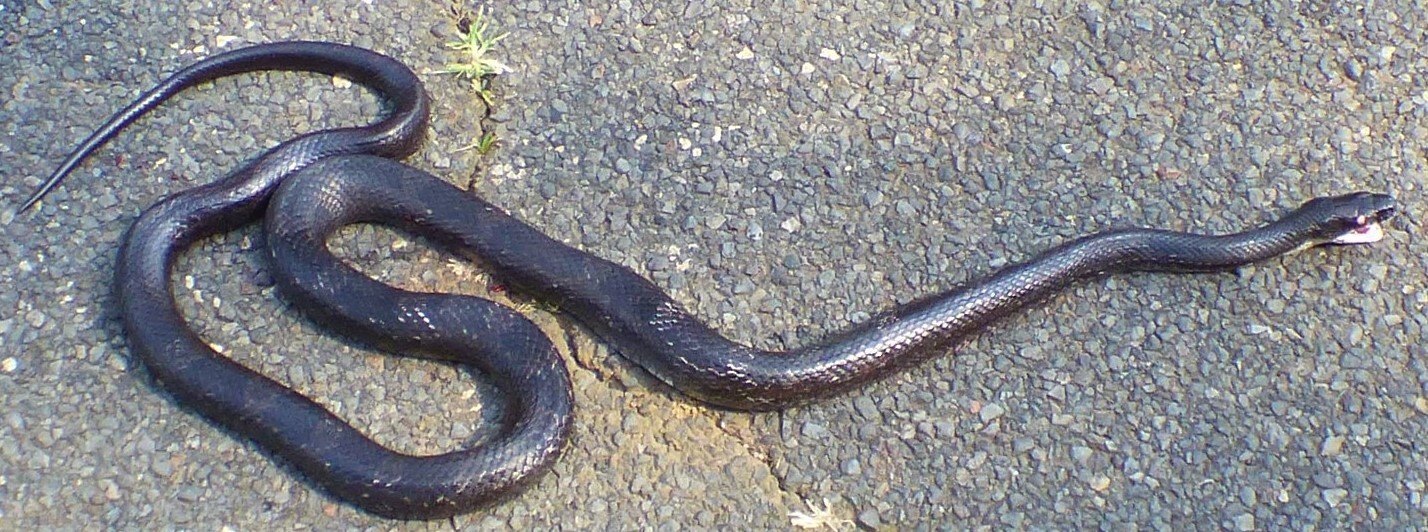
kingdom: Animalia
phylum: Chordata
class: Squamata
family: Colubridae
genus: Pantherophis
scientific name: Pantherophis alleghaniensis
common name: Eastern rat snake
